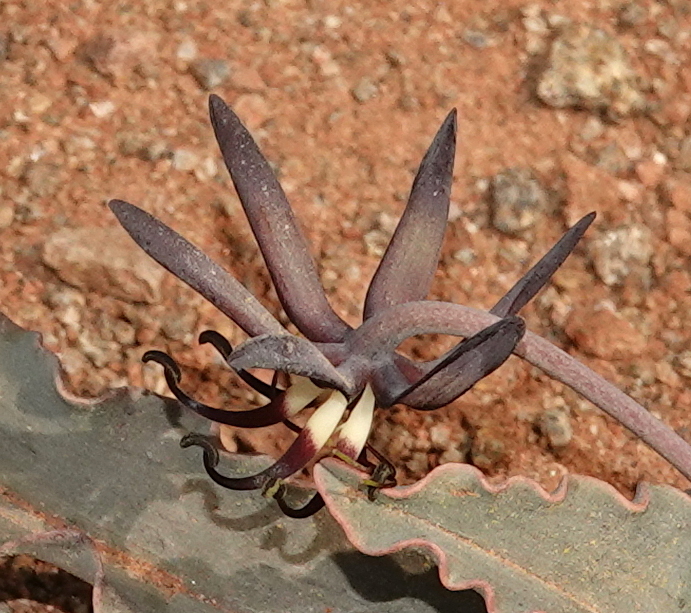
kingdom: Plantae
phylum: Tracheophyta
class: Liliopsida
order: Liliales
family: Colchicaceae
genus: Ornithoglossum
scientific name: Ornithoglossum vulgare
